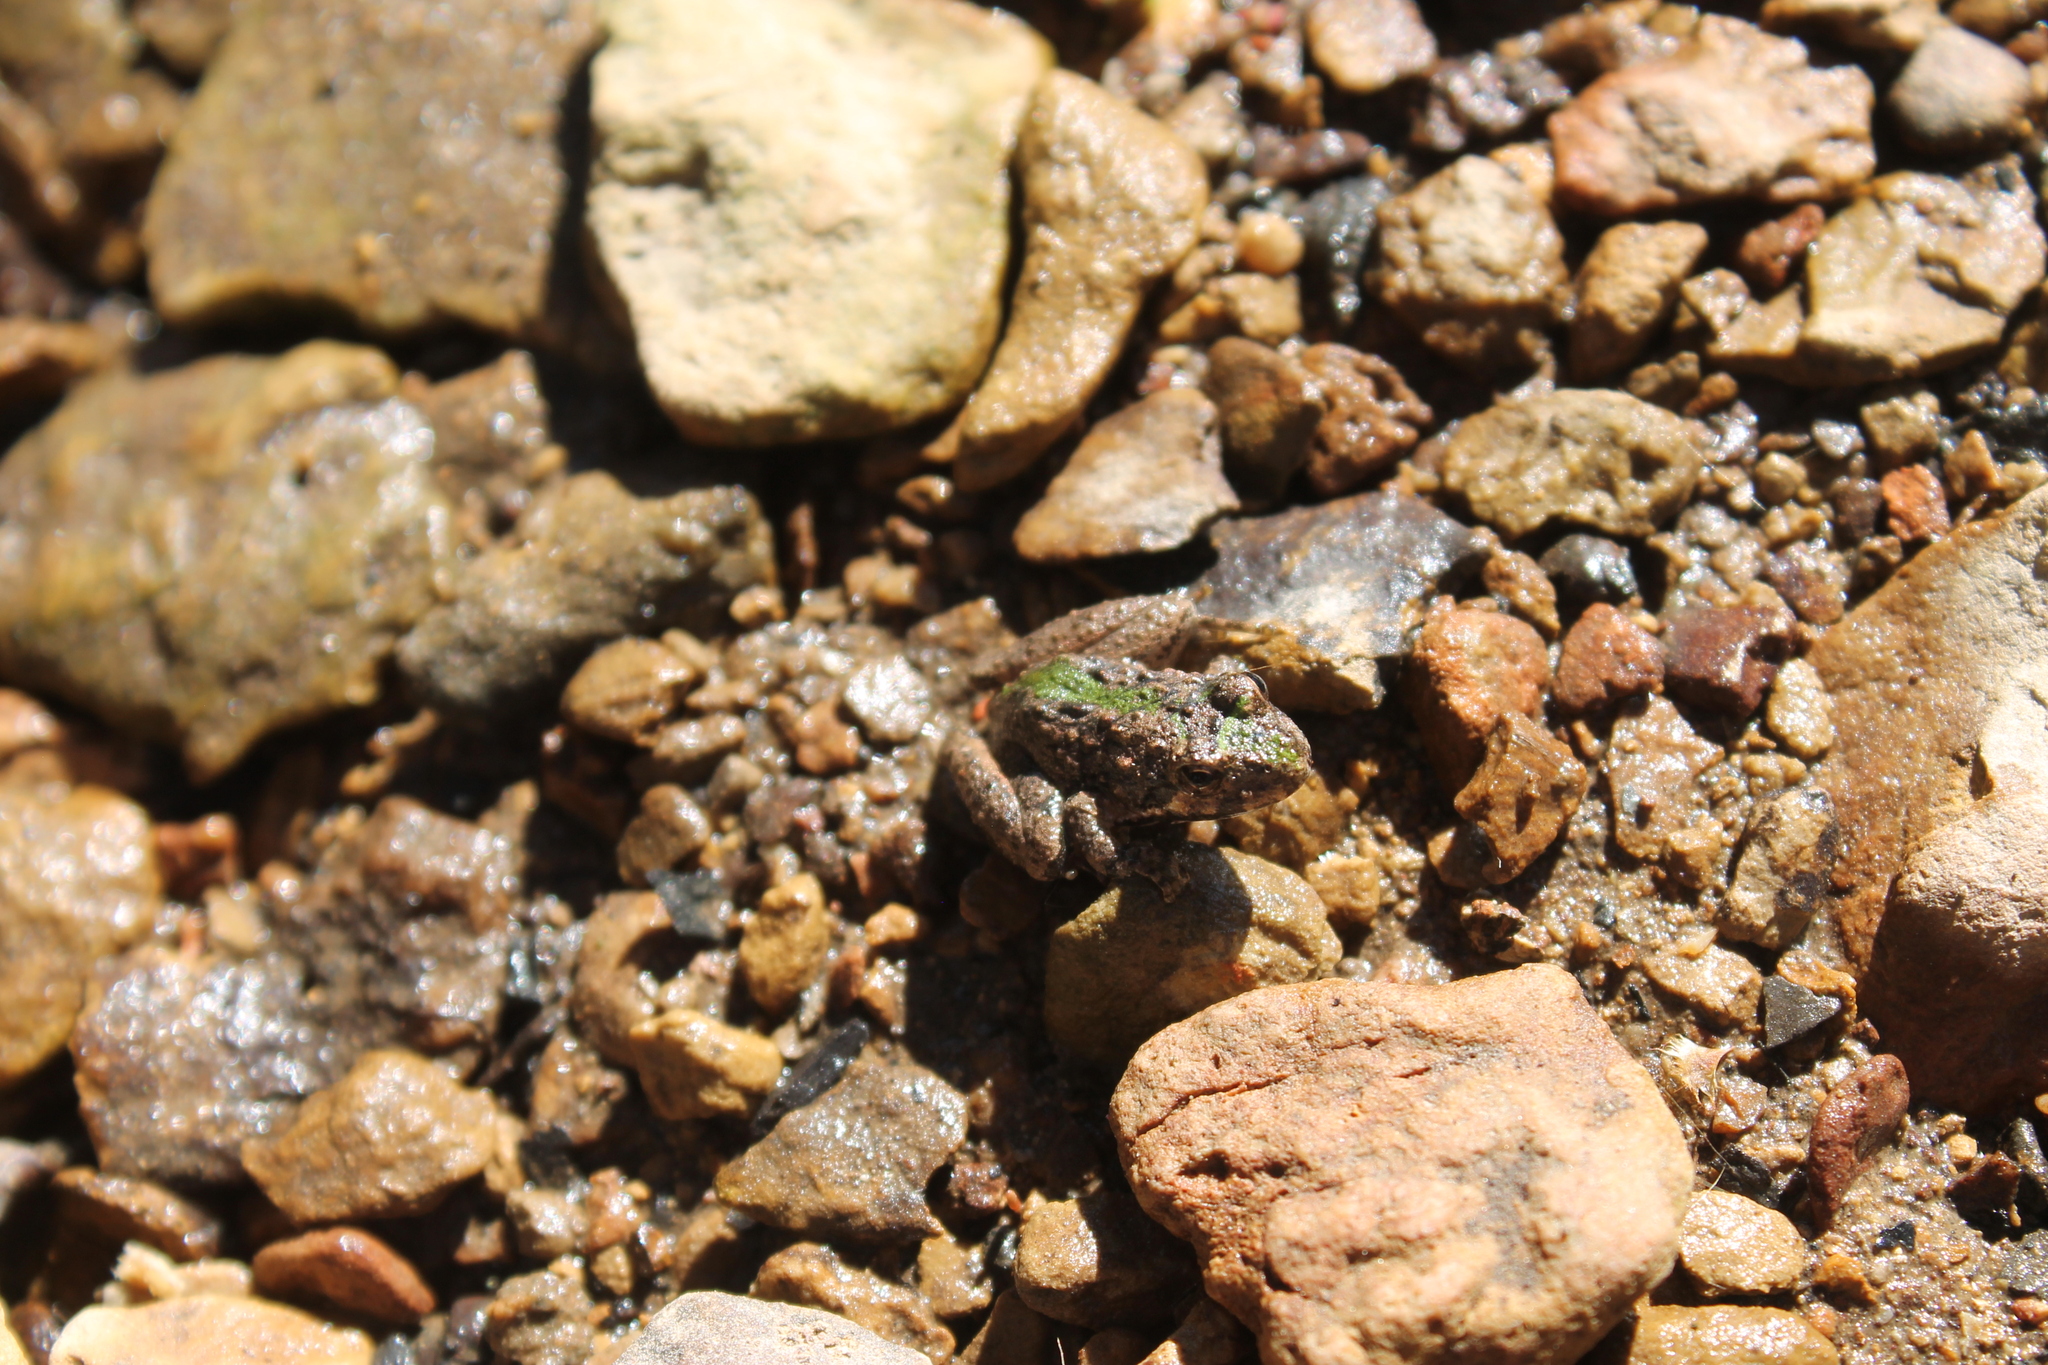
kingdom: Animalia
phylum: Chordata
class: Amphibia
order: Anura
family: Hylidae
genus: Acris
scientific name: Acris crepitans
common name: Northern cricket frog
